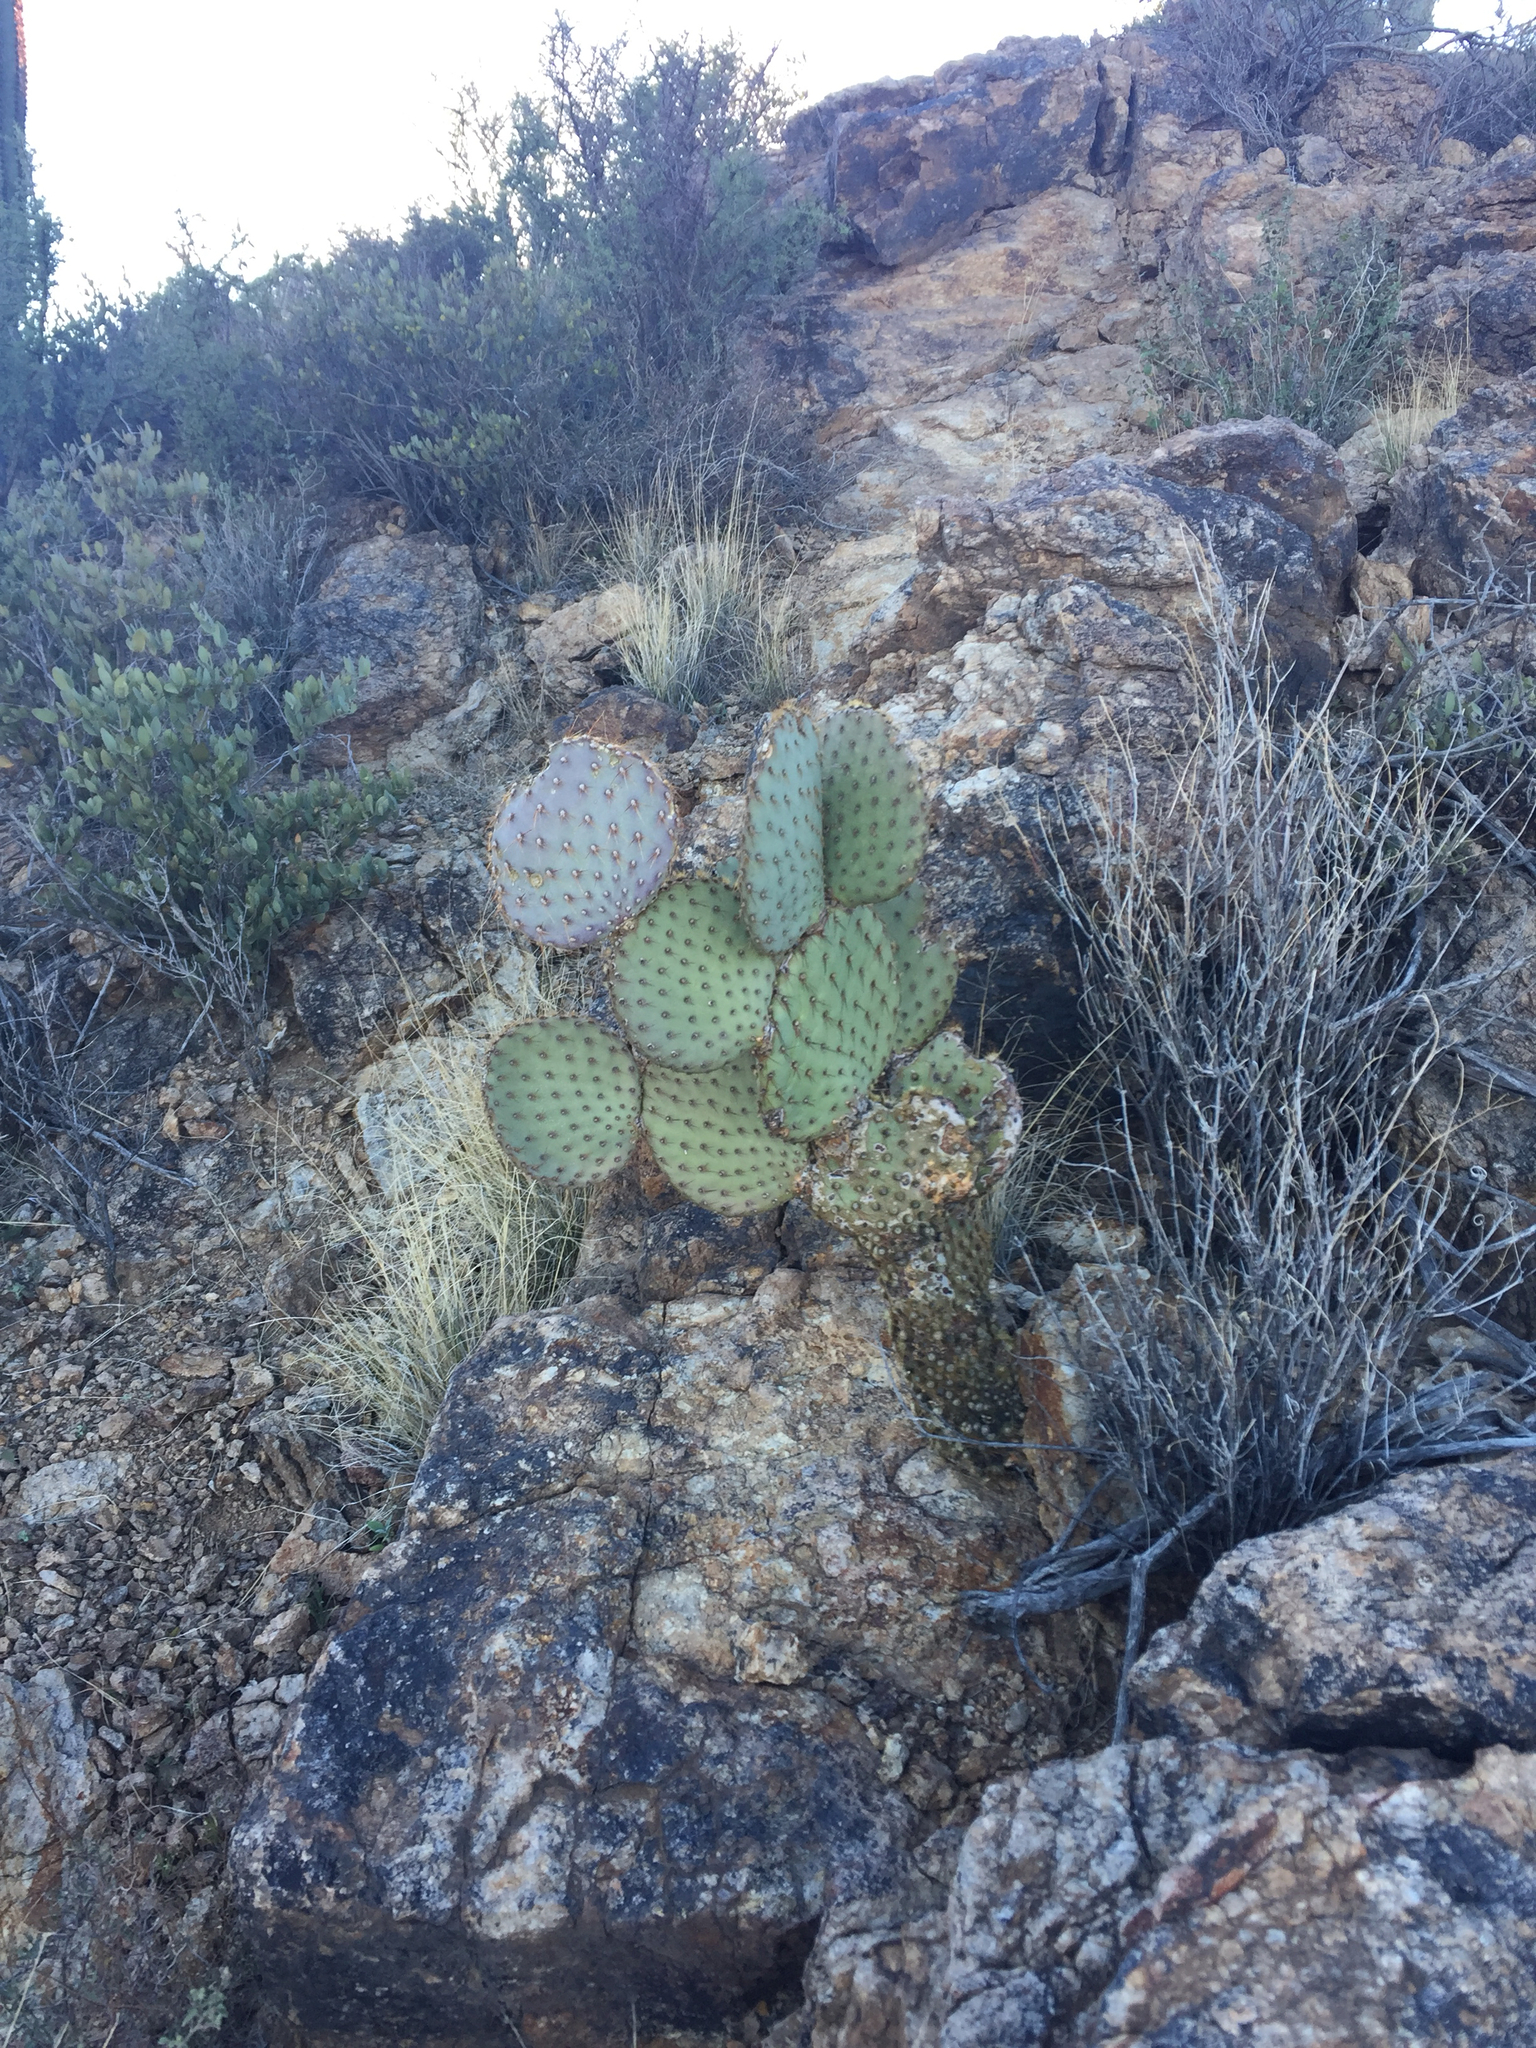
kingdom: Plantae
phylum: Tracheophyta
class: Magnoliopsida
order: Caryophyllales
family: Cactaceae
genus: Opuntia
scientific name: Opuntia chlorotica
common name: Dollar-joint prickly-pear
